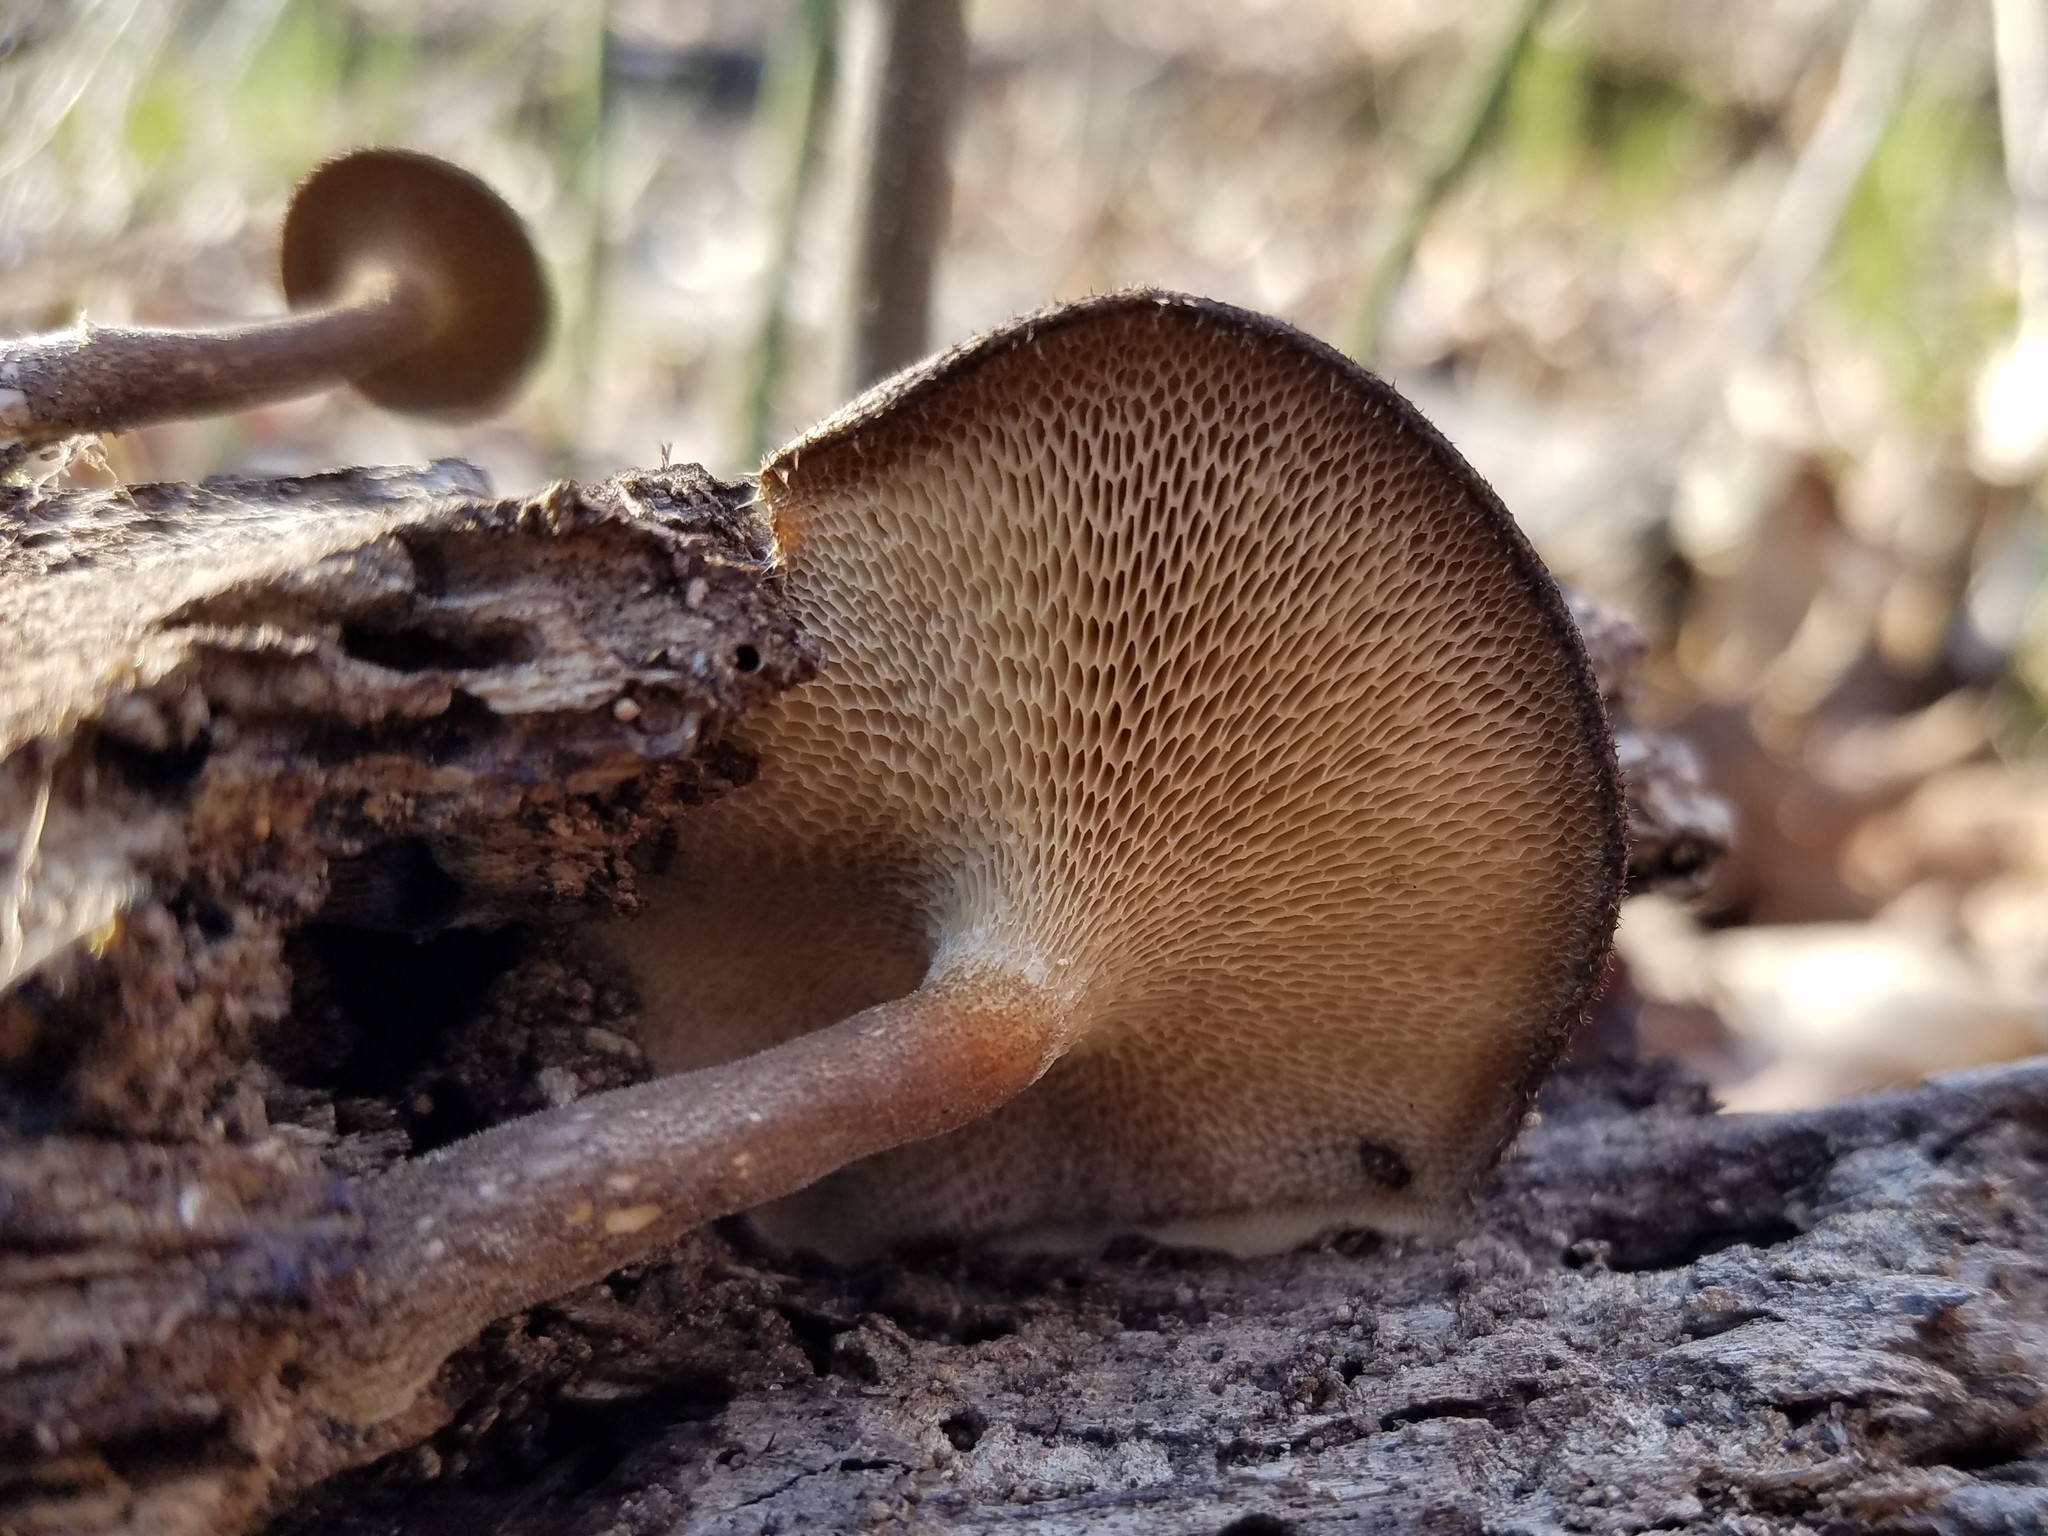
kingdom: Fungi
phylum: Basidiomycota
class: Agaricomycetes
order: Polyporales
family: Polyporaceae
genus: Lentinus
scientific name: Lentinus arcularius
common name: Spring polypore
